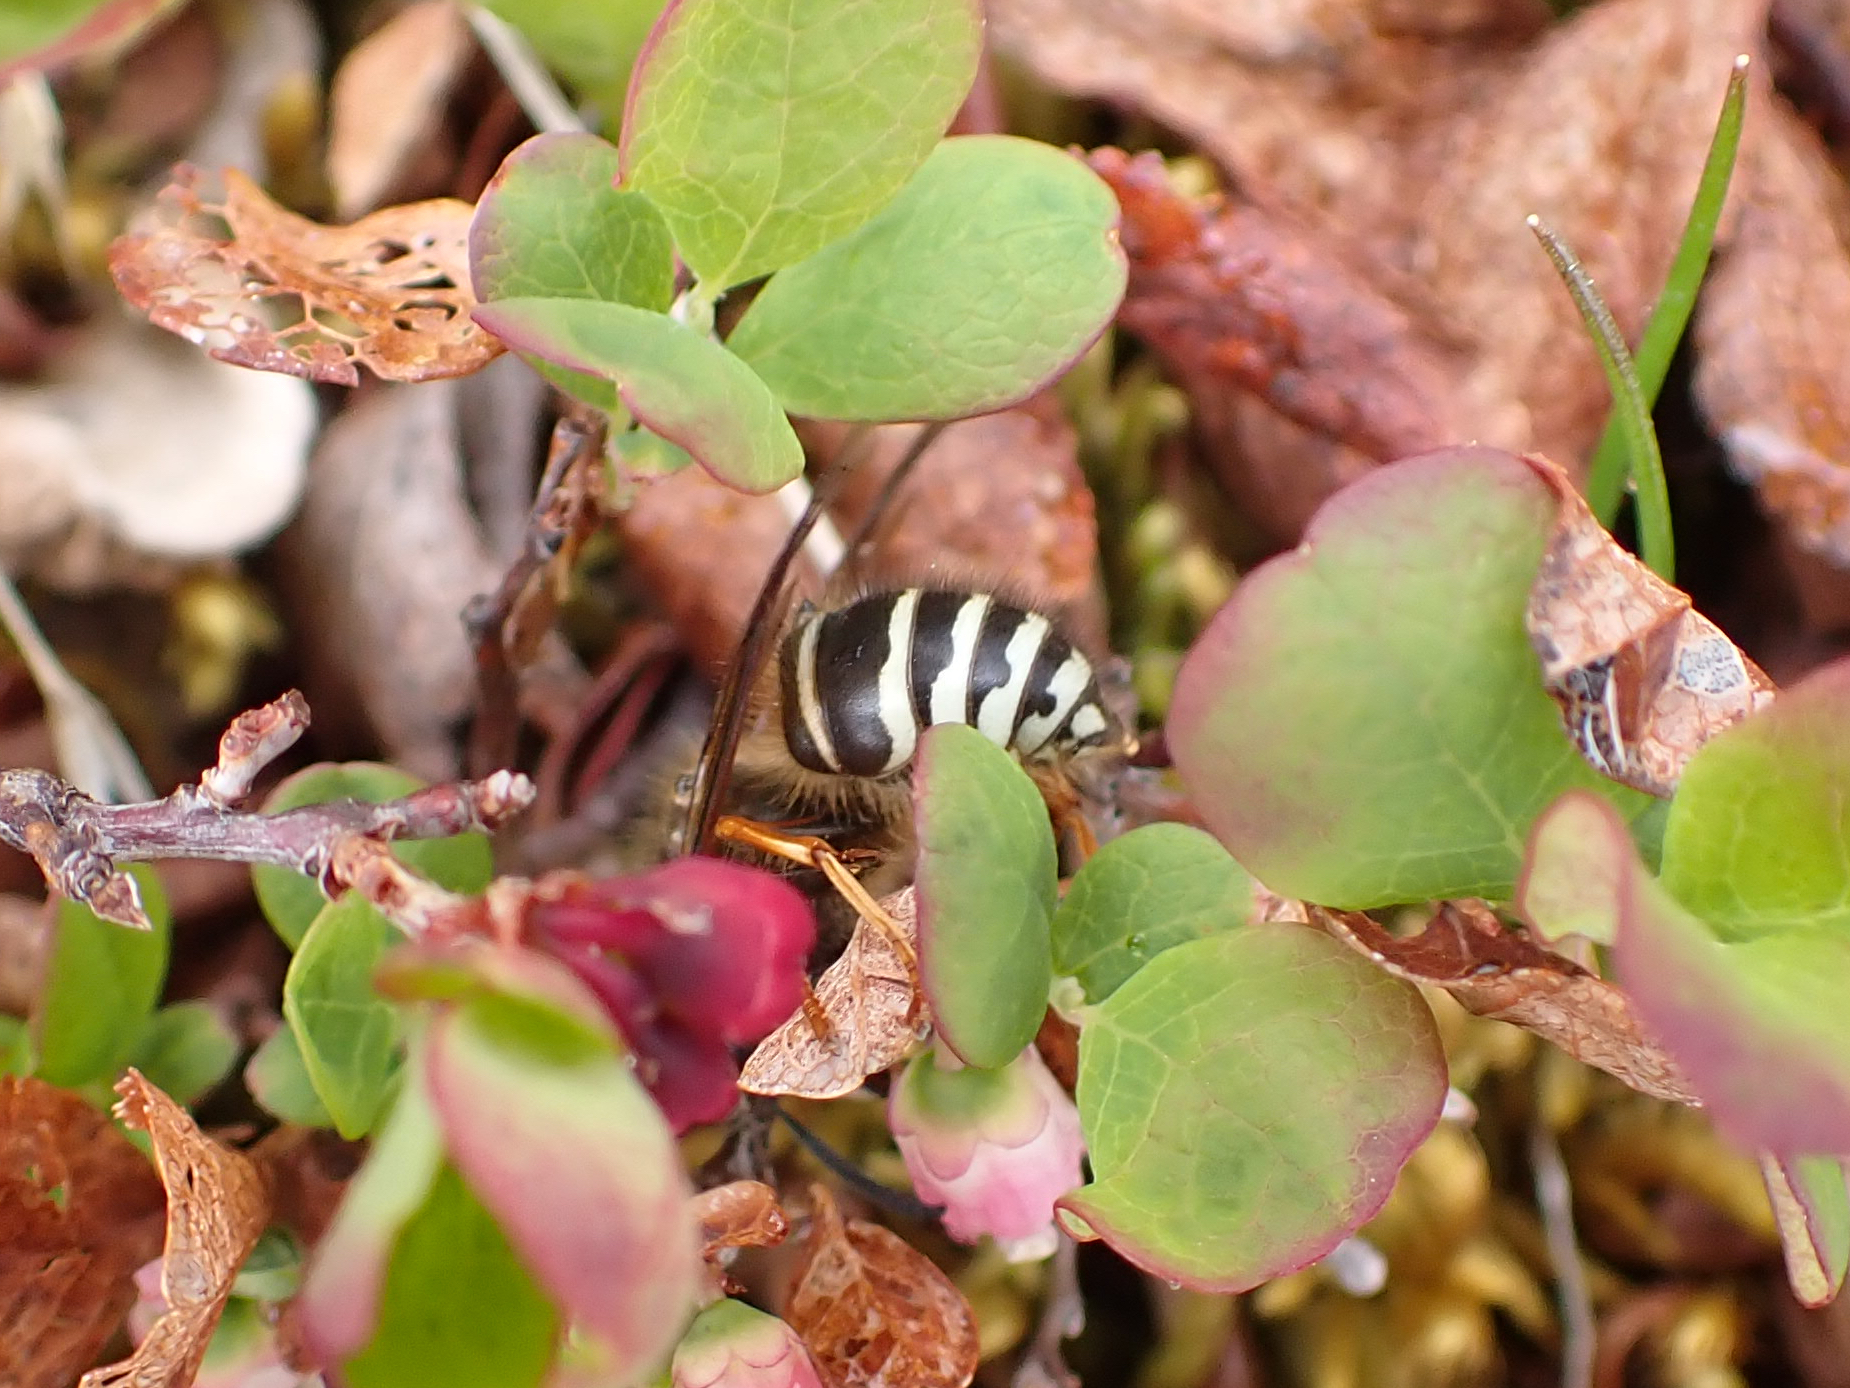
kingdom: Animalia
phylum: Arthropoda
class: Insecta
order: Hymenoptera
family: Vespidae
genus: Dolichovespula
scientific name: Dolichovespula norwegica
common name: Norwegian wasp
